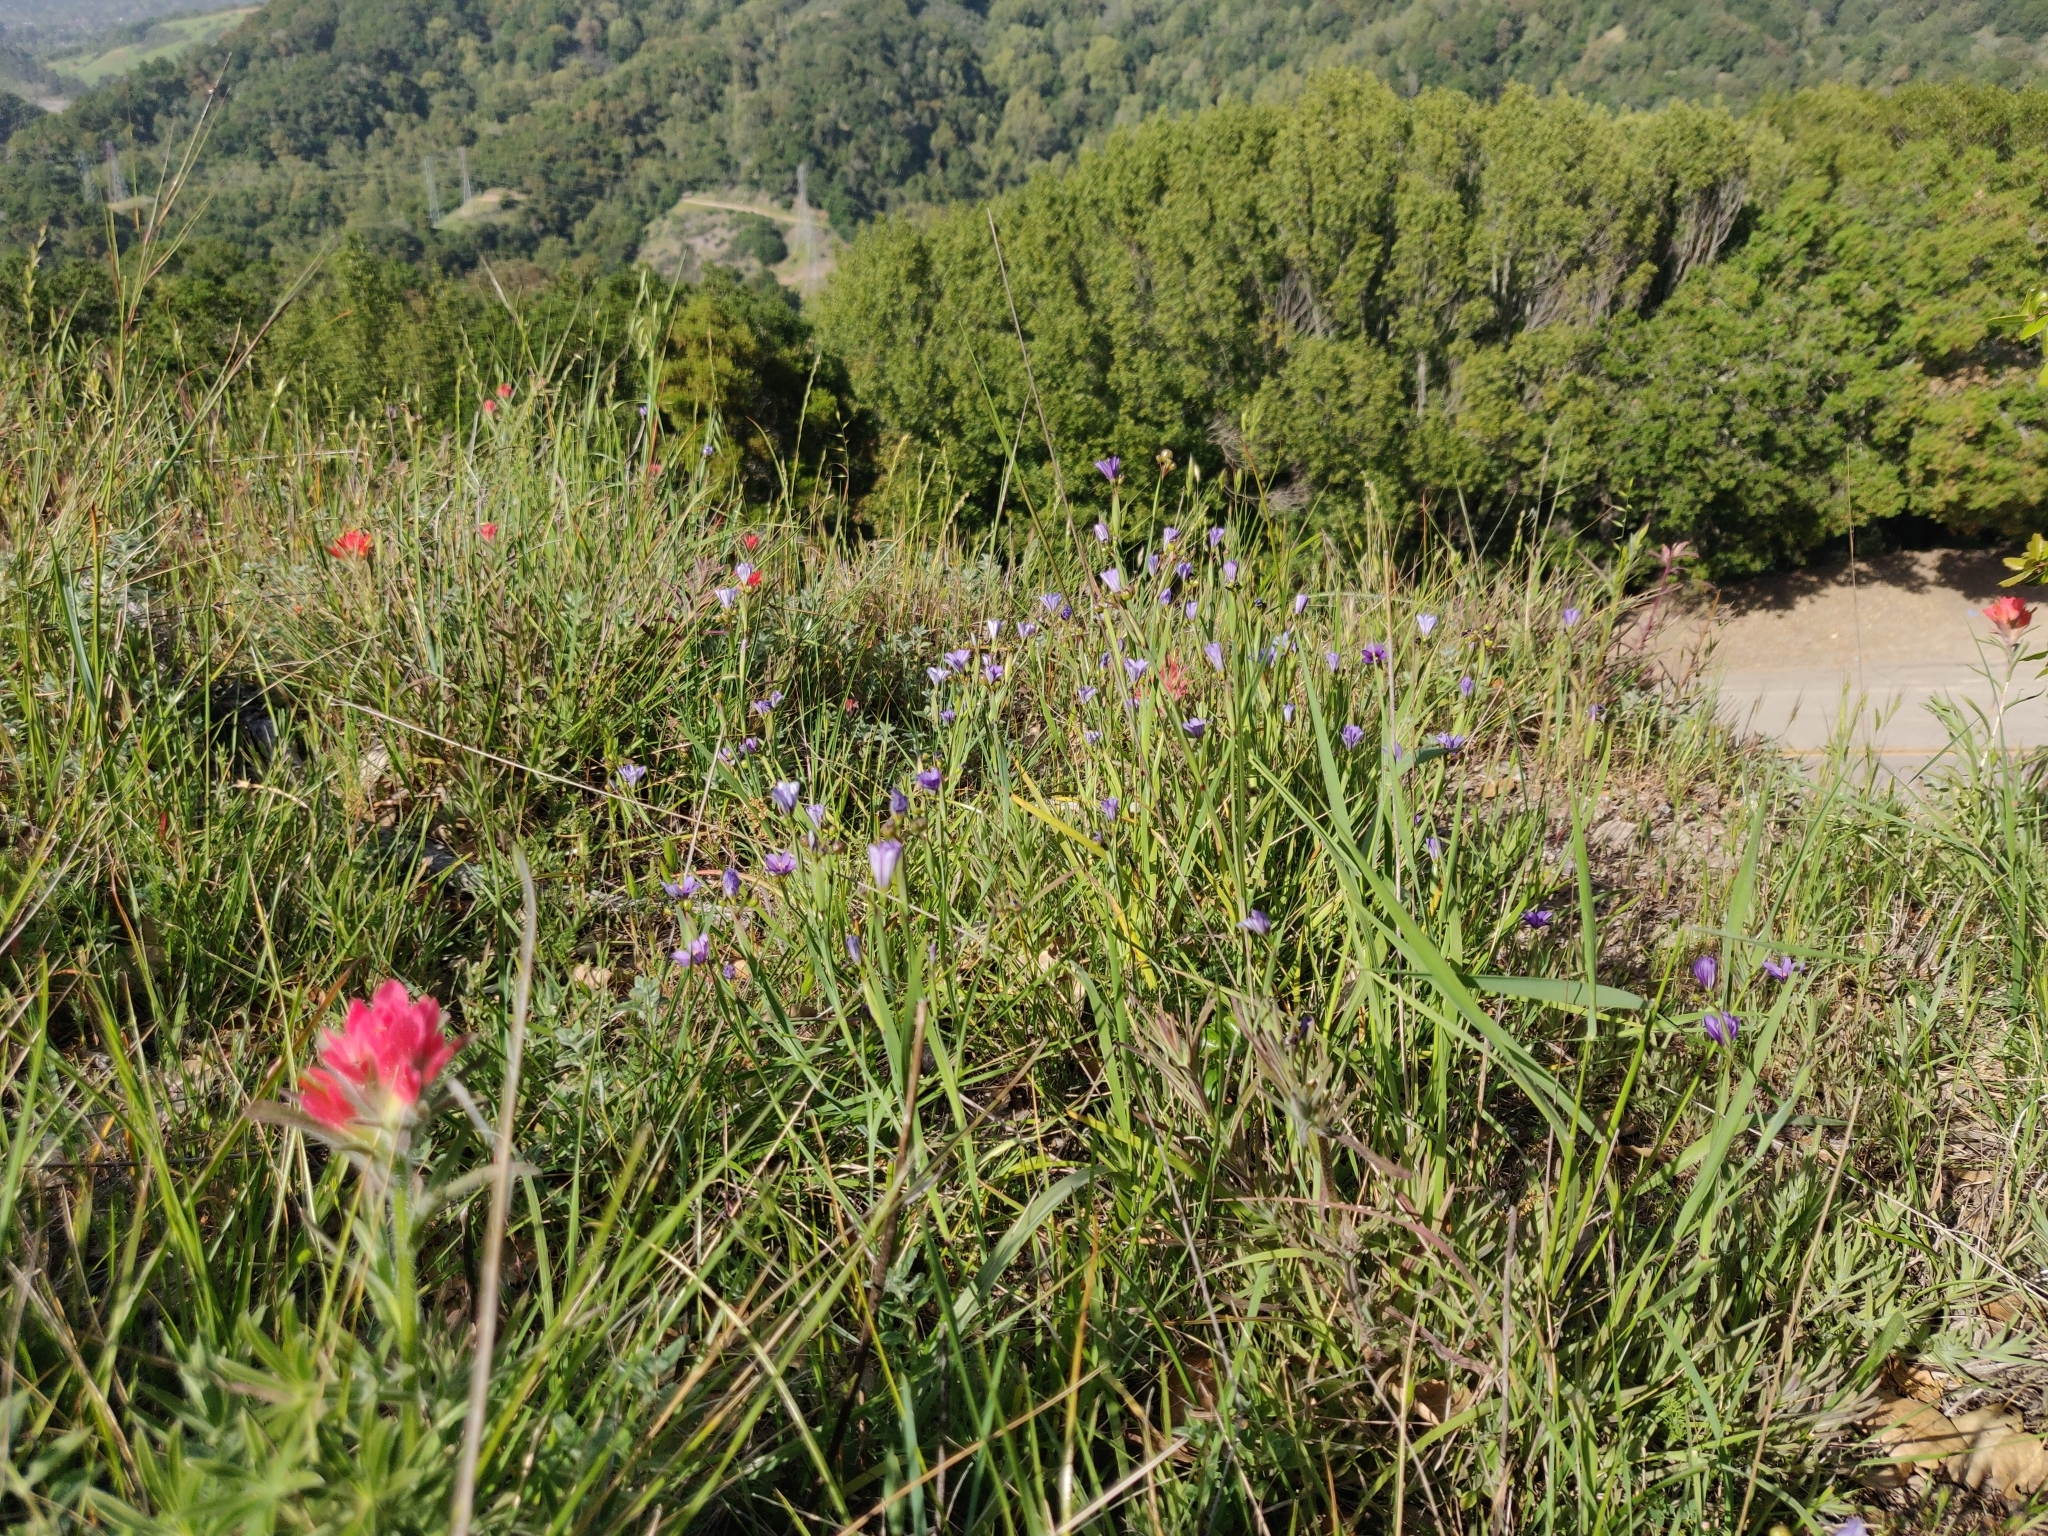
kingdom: Plantae
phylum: Tracheophyta
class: Liliopsida
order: Asparagales
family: Iridaceae
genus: Sisyrinchium
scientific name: Sisyrinchium bellum
